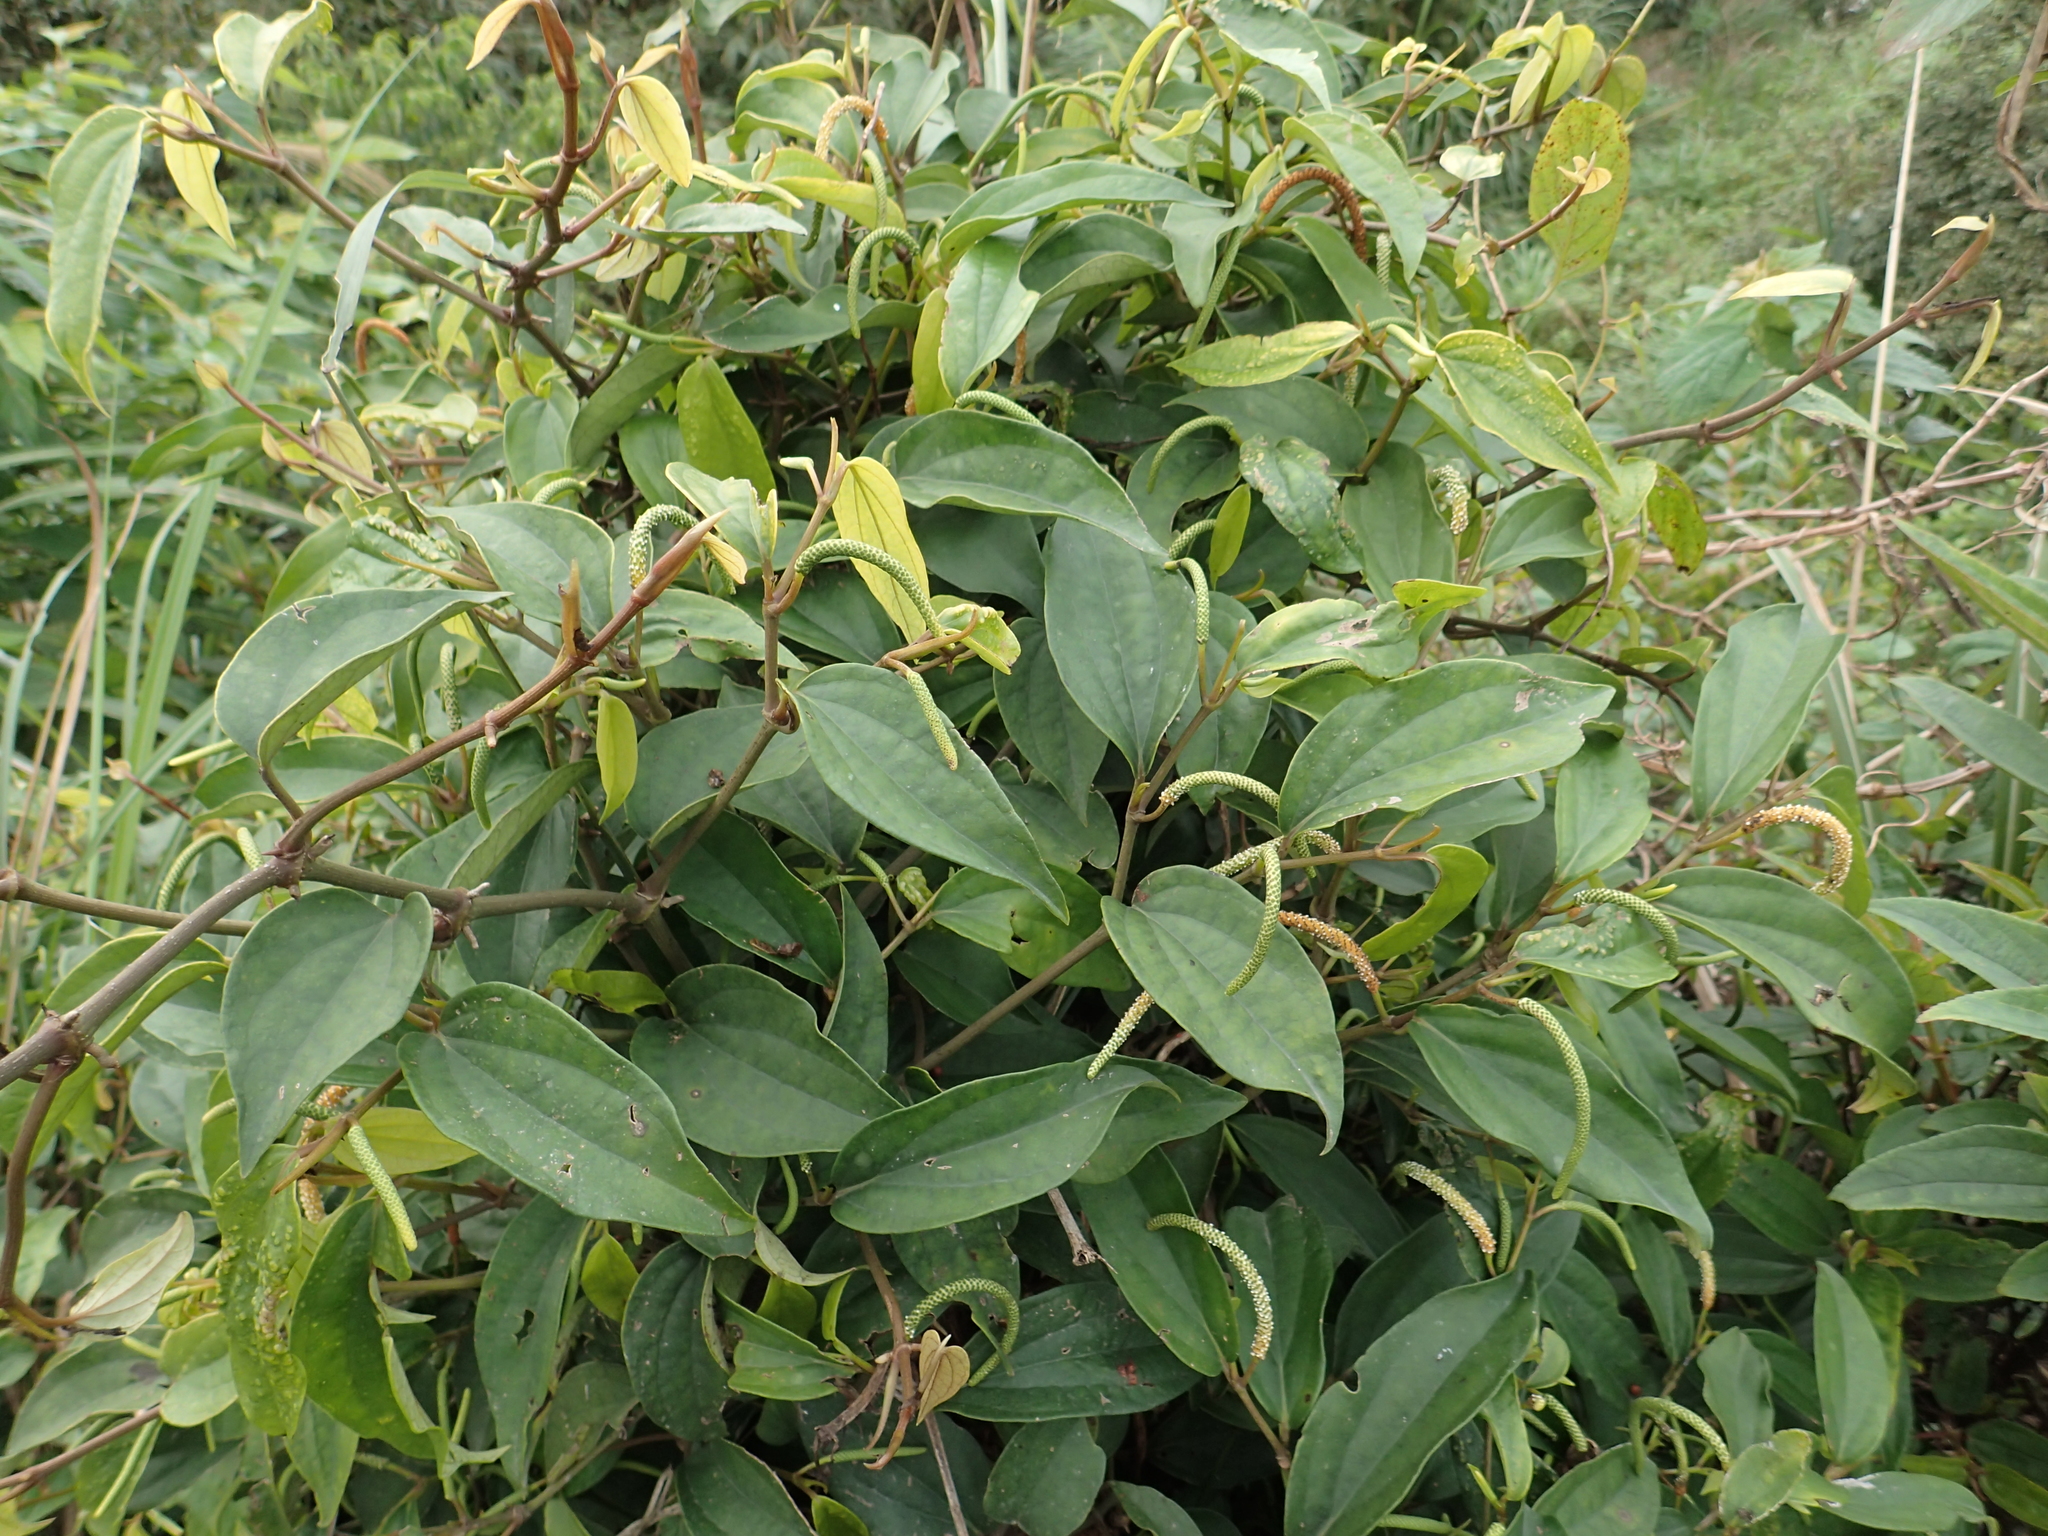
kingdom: Plantae
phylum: Tracheophyta
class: Magnoliopsida
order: Piperales
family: Piperaceae
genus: Piper
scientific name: Piper kadsura
